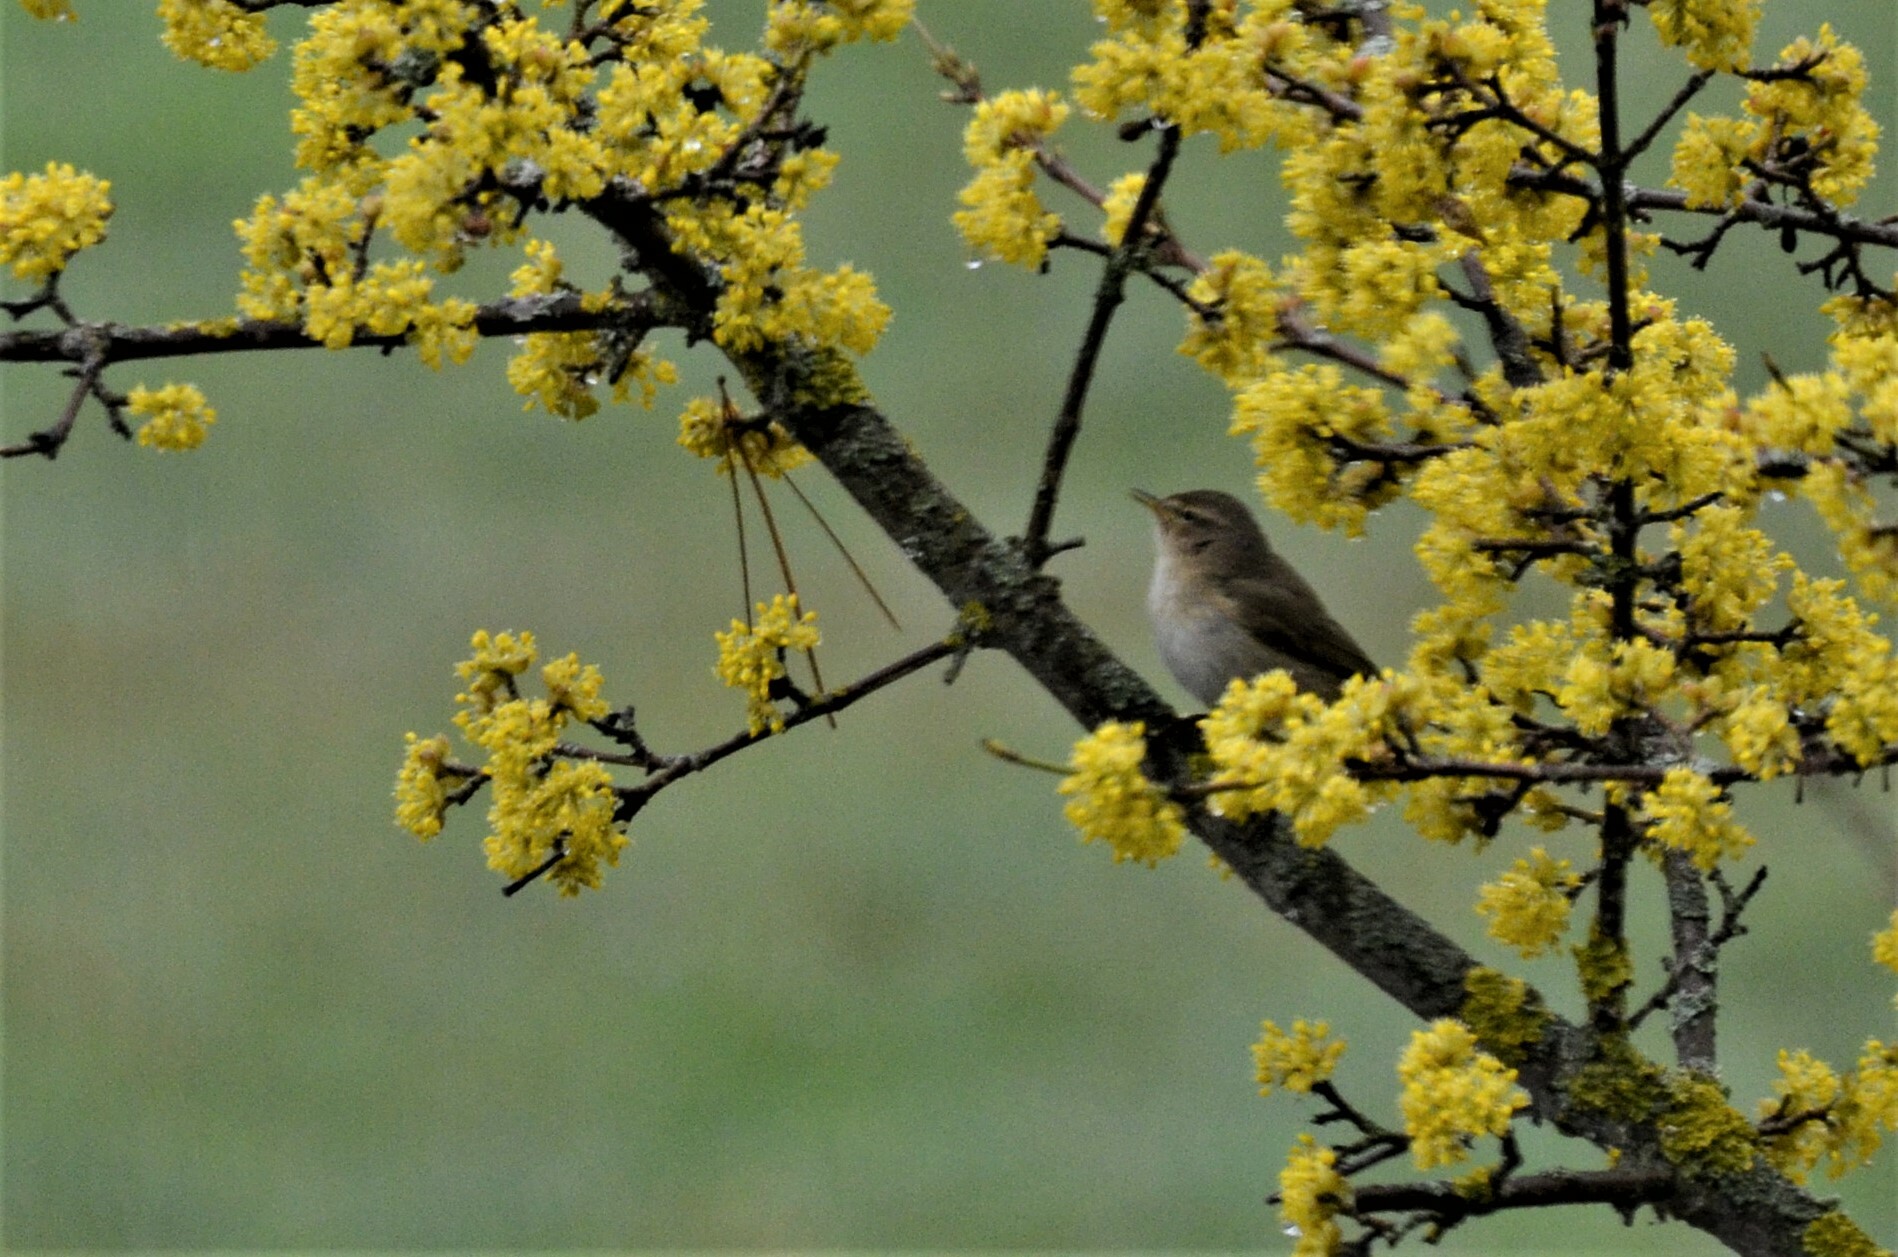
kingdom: Animalia
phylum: Chordata
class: Aves
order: Passeriformes
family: Phylloscopidae
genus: Phylloscopus
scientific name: Phylloscopus collybita
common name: Common chiffchaff
